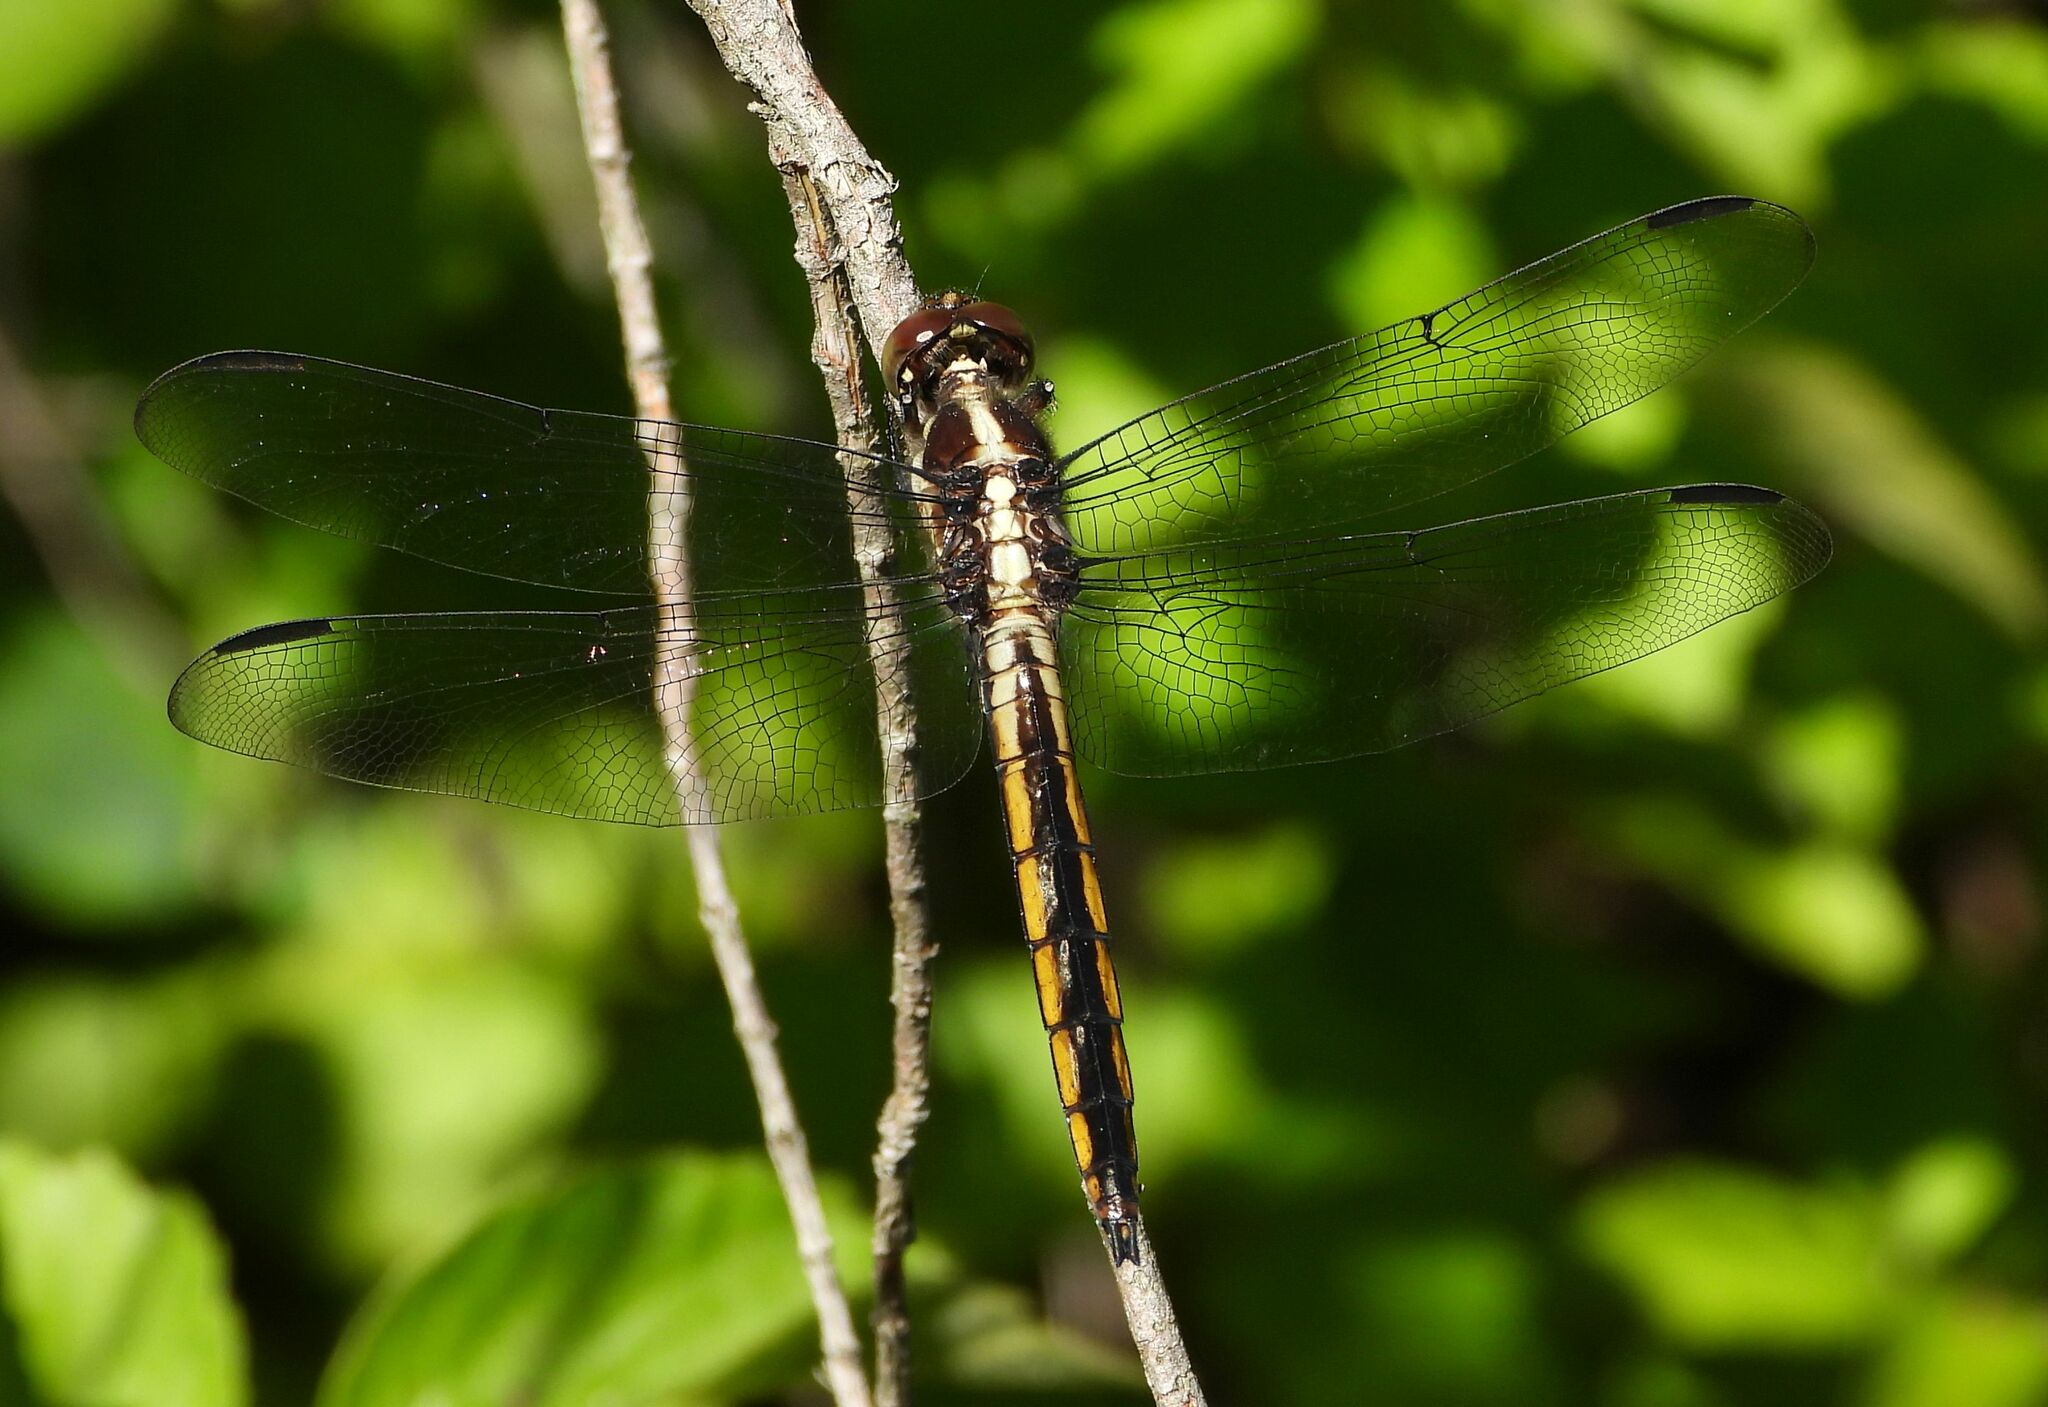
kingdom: Animalia
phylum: Arthropoda
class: Insecta
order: Odonata
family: Libellulidae
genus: Libellula
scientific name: Libellula incesta
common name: Slaty skimmer
